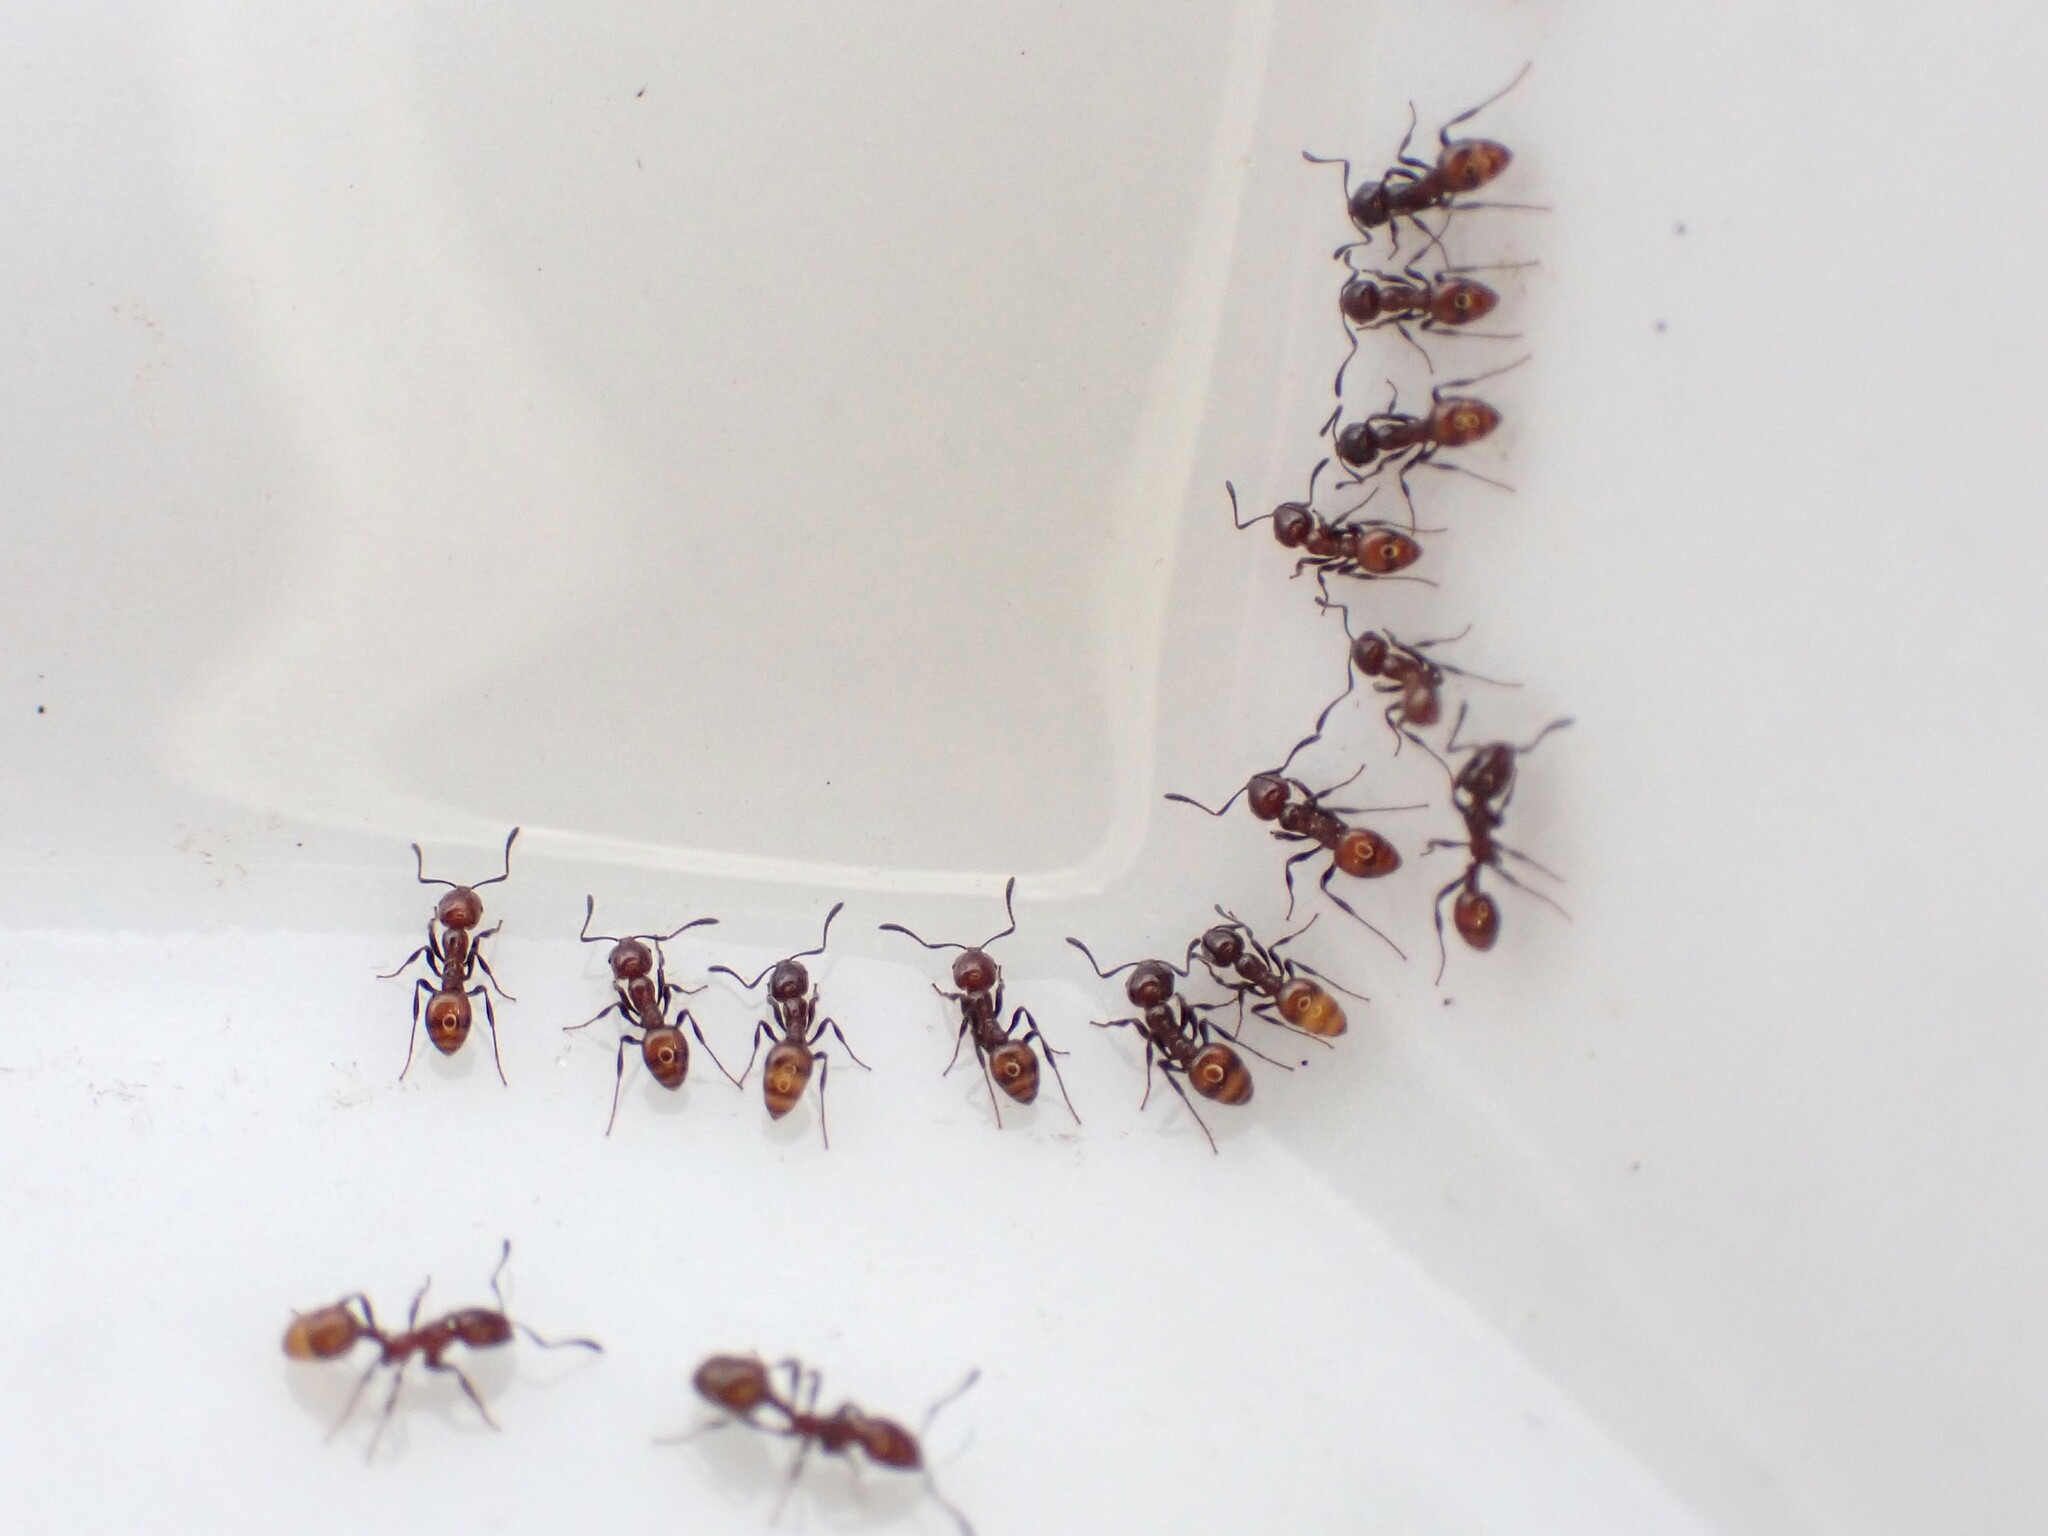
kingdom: Animalia
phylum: Arthropoda
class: Insecta
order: Hymenoptera
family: Formicidae
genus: Monomorium
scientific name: Monomorium antarcticum
